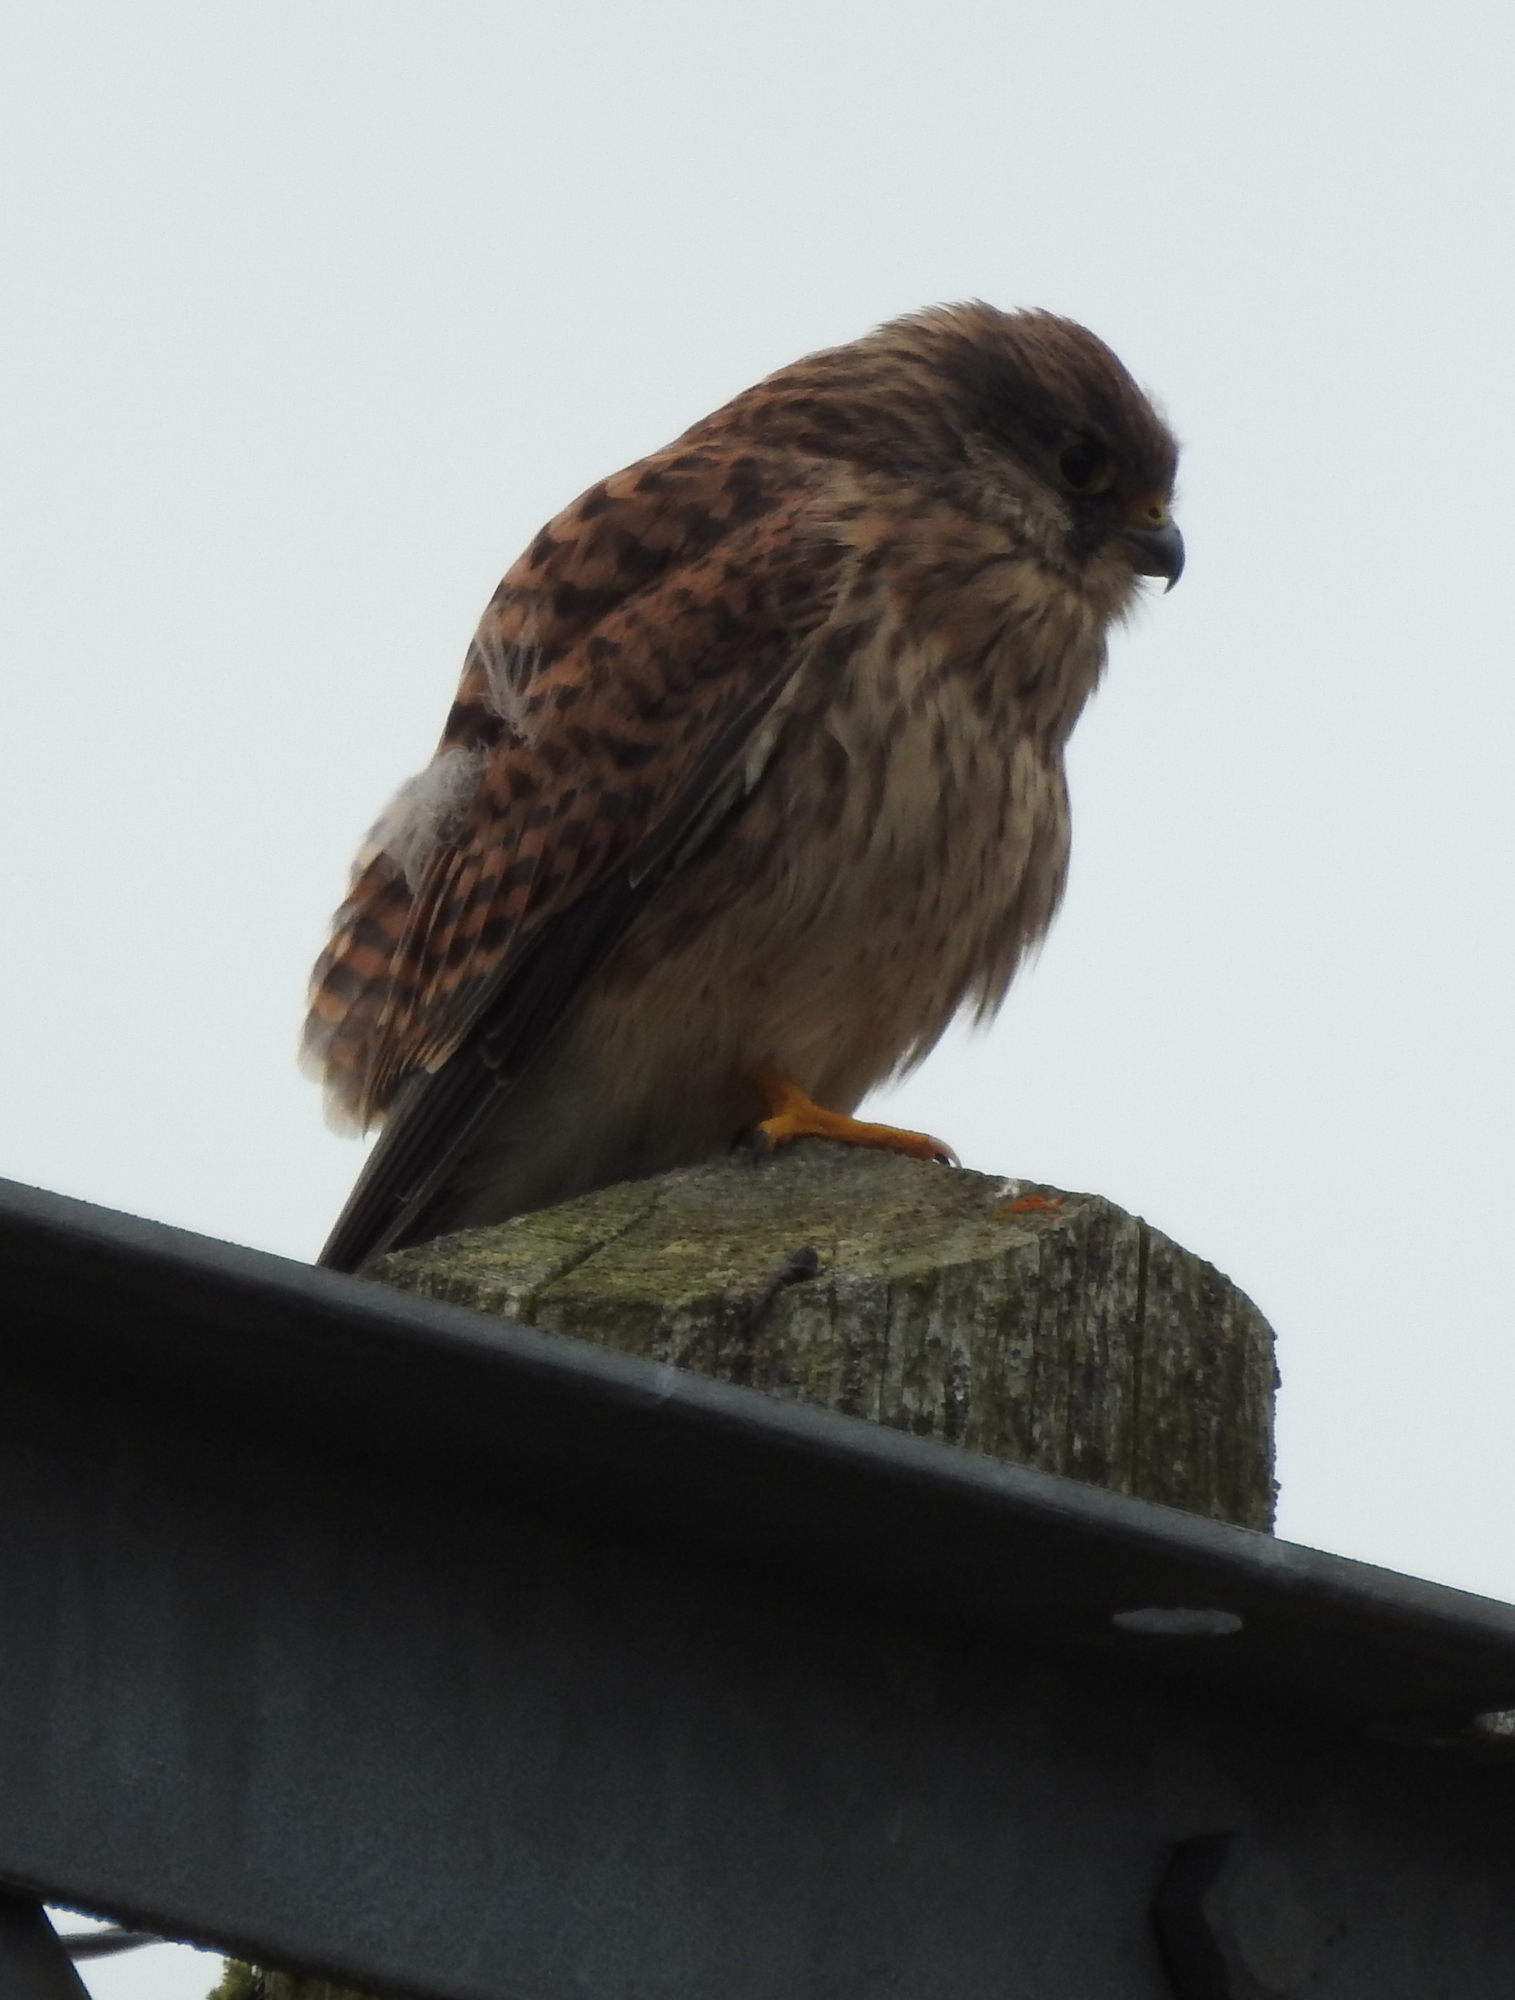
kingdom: Animalia
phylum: Chordata
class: Aves
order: Falconiformes
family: Falconidae
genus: Falco
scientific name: Falco tinnunculus
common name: Common kestrel
